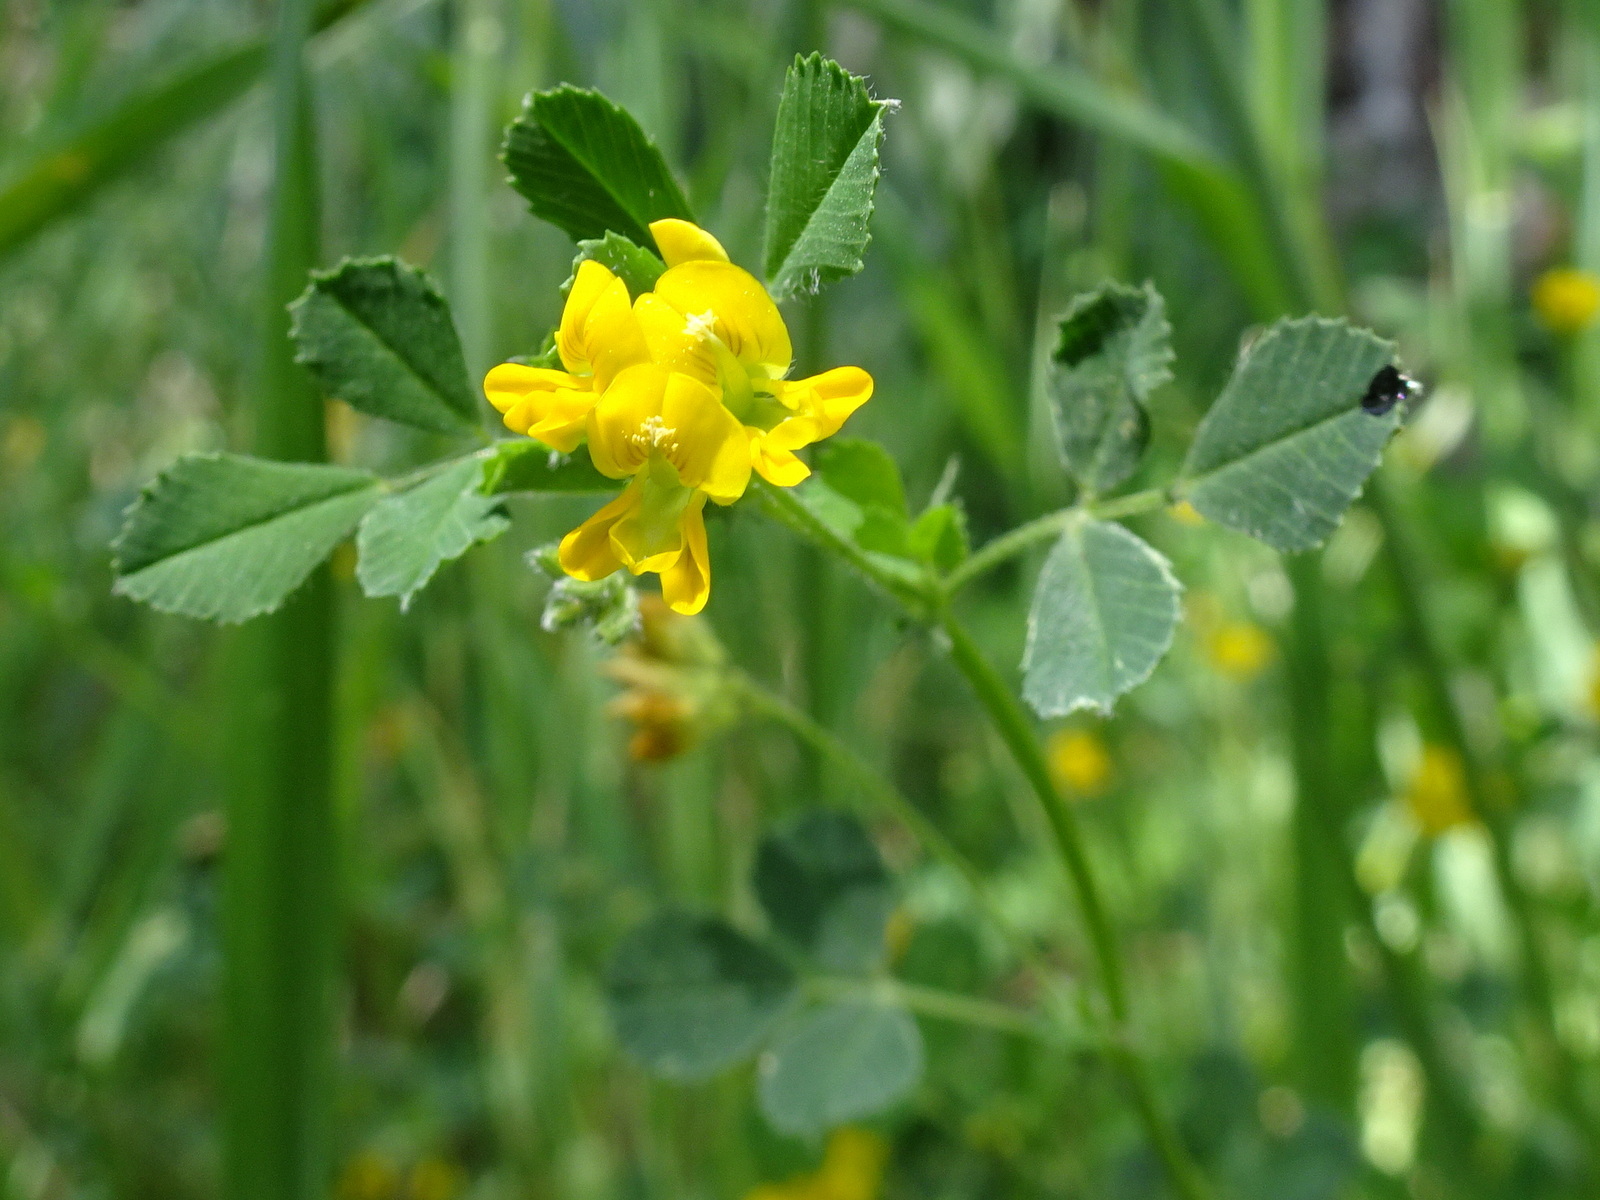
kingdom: Plantae
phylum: Tracheophyta
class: Magnoliopsida
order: Fabales
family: Fabaceae
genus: Medicago
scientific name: Medicago littoralis
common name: Shore medick
